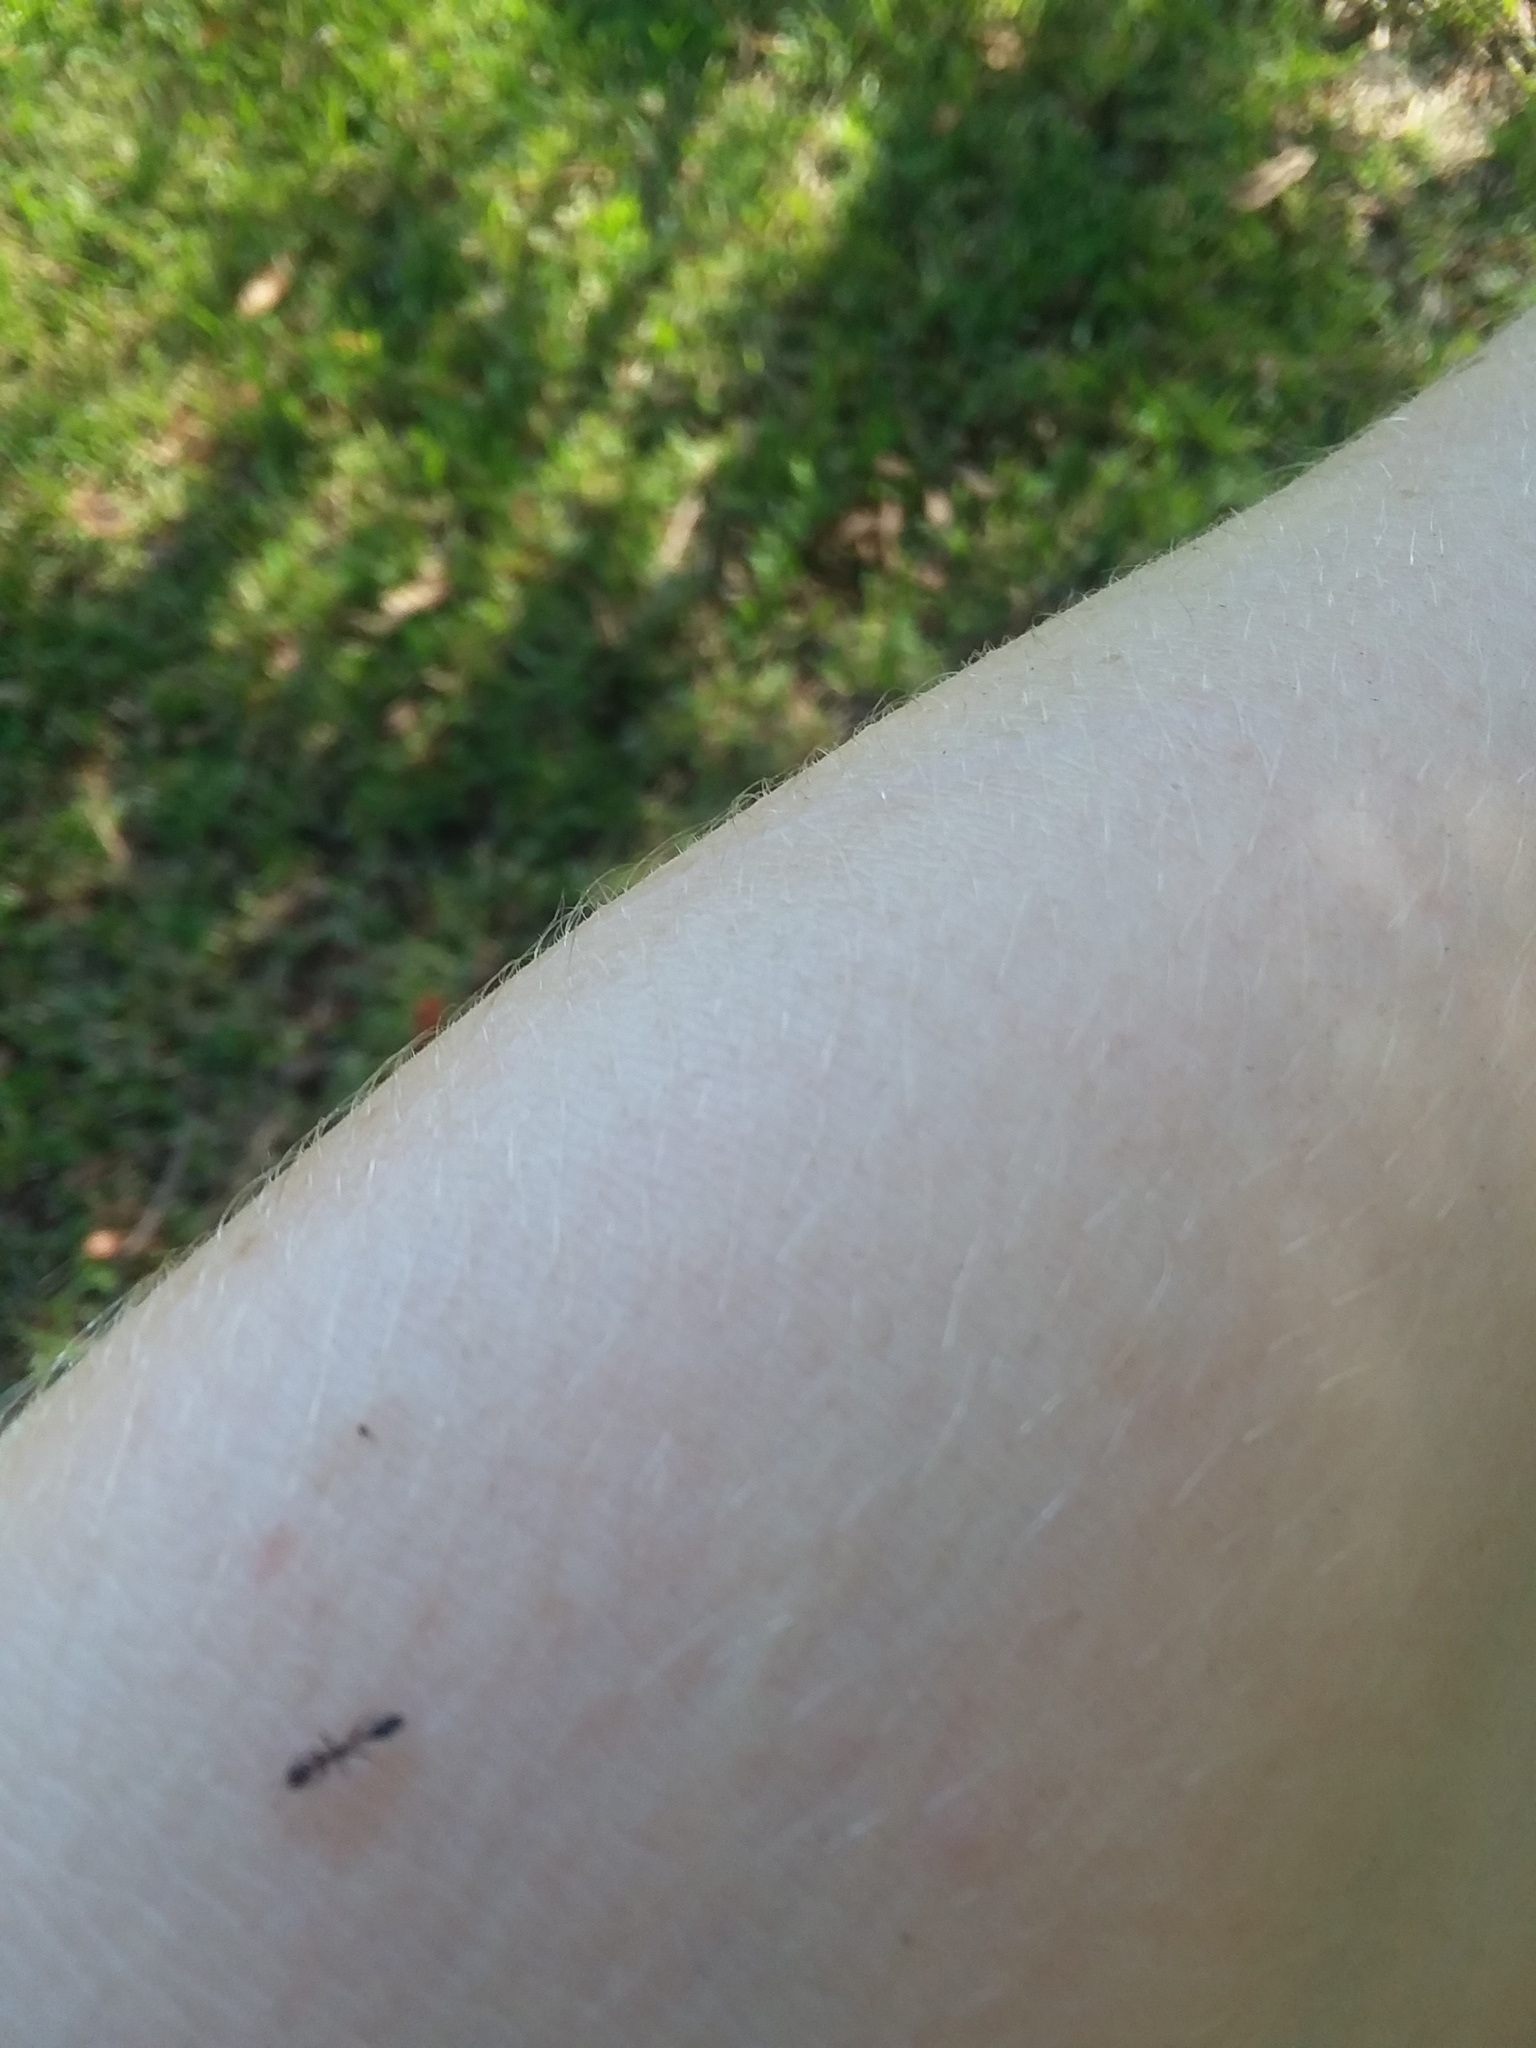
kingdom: Animalia
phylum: Arthropoda
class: Insecta
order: Hymenoptera
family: Formicidae
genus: Pseudomyrmex
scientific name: Pseudomyrmex ejectus
